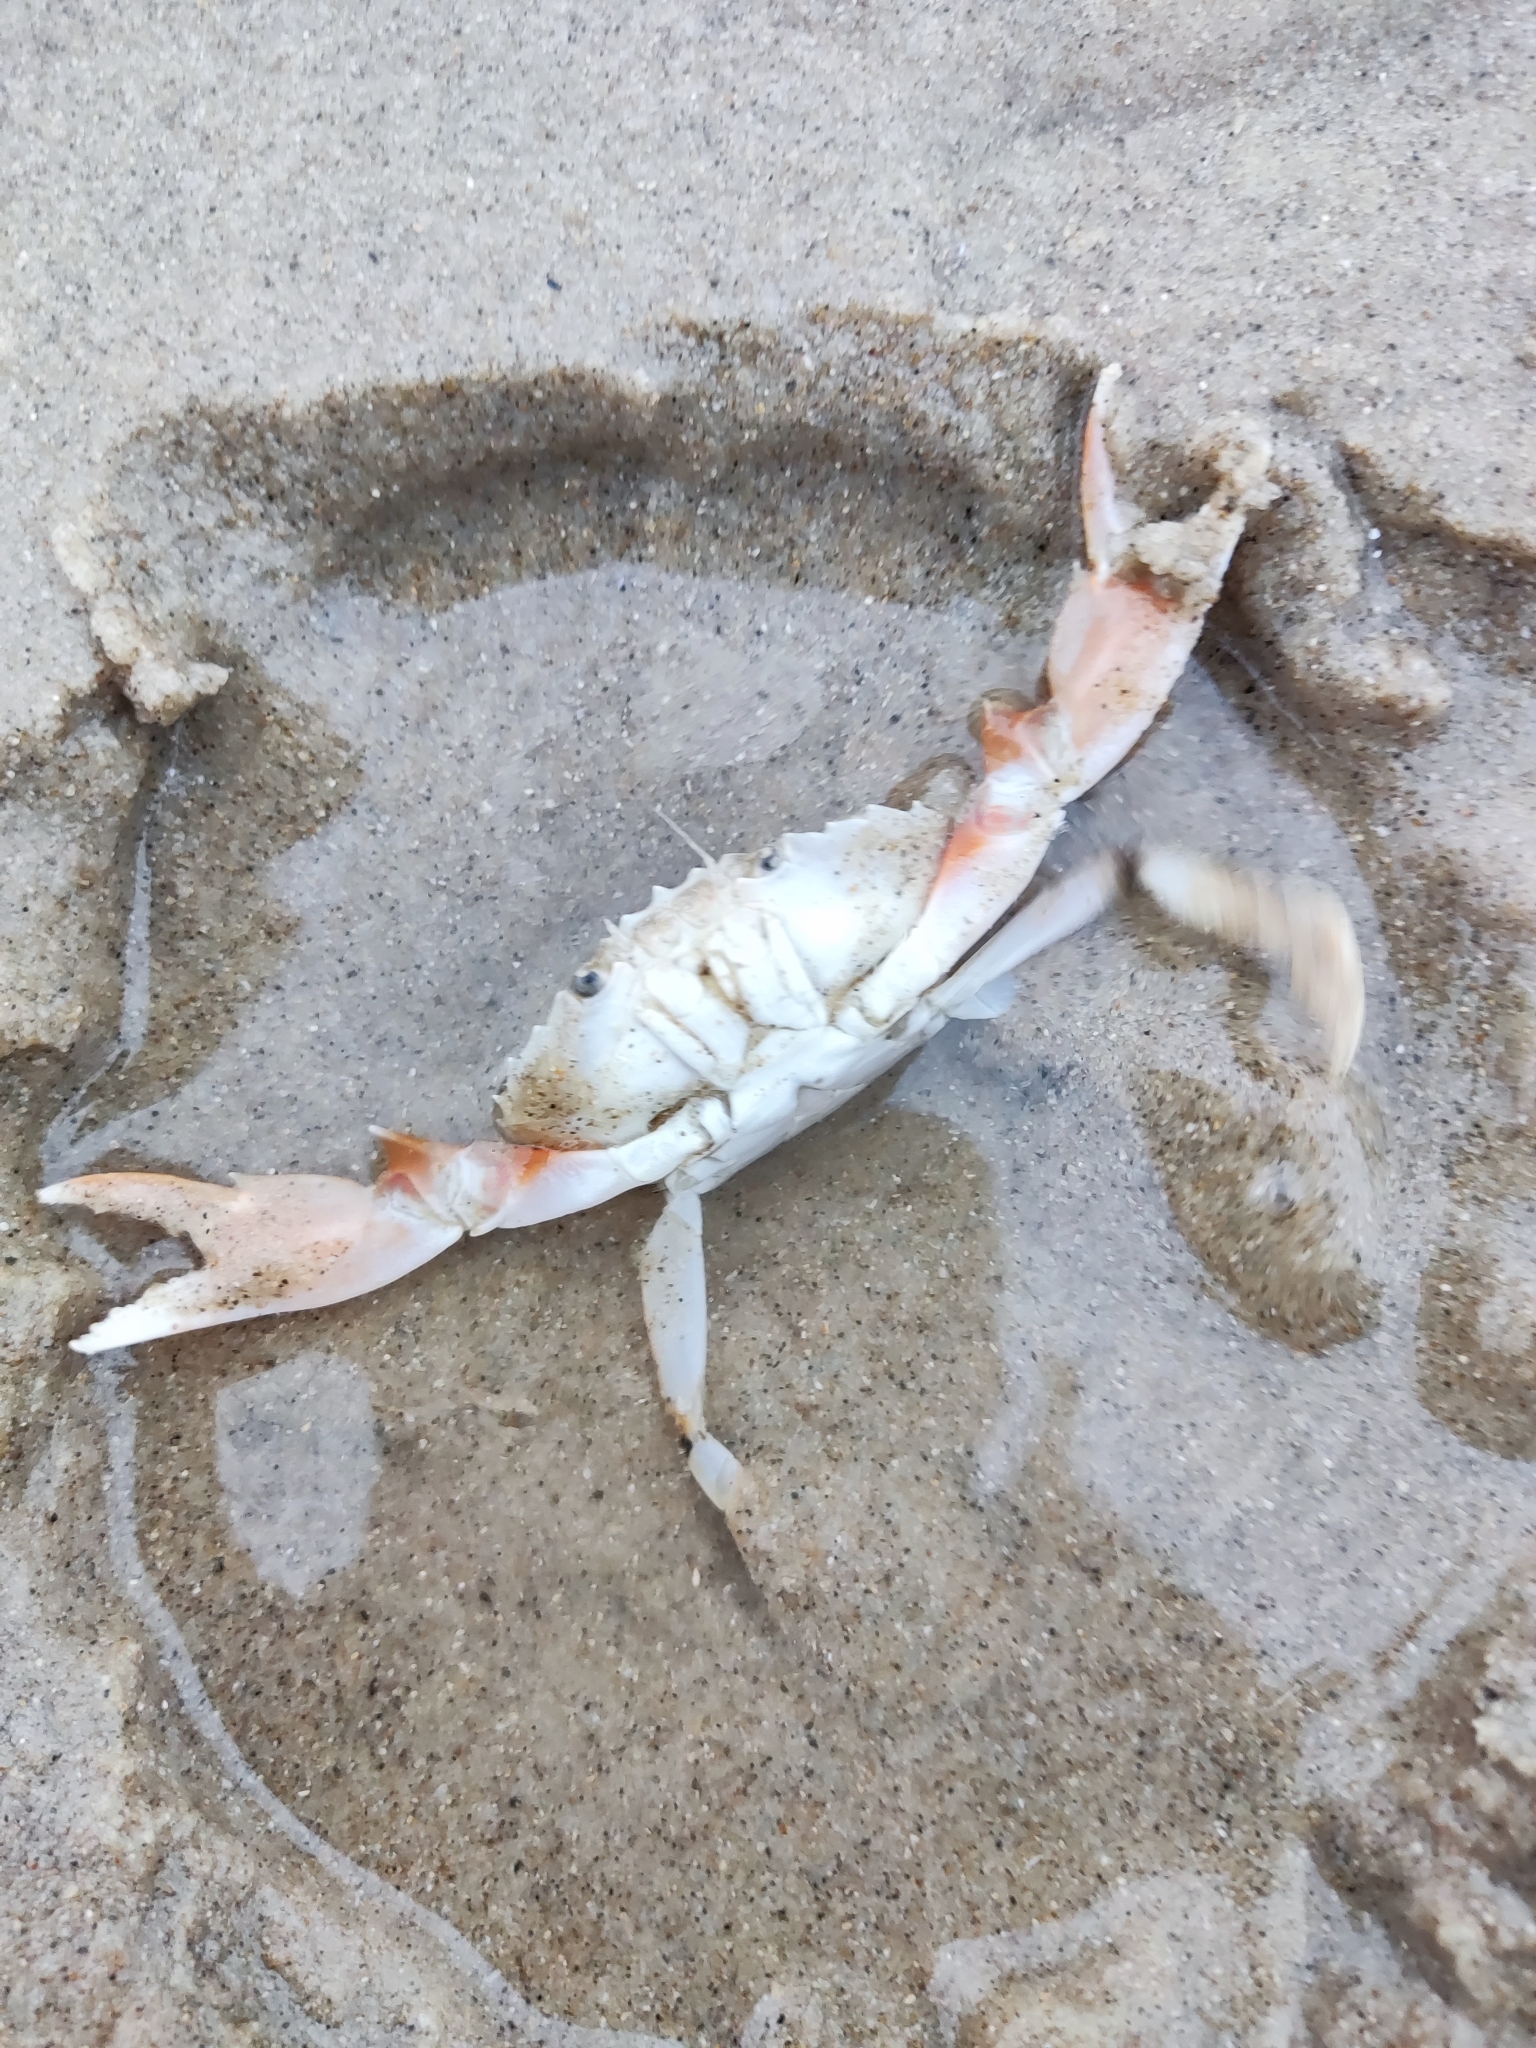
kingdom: Animalia
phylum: Arthropoda
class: Malacostraca
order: Decapoda
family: Polybiidae
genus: Liocarcinus
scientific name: Liocarcinus holsatus
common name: Flying crab
